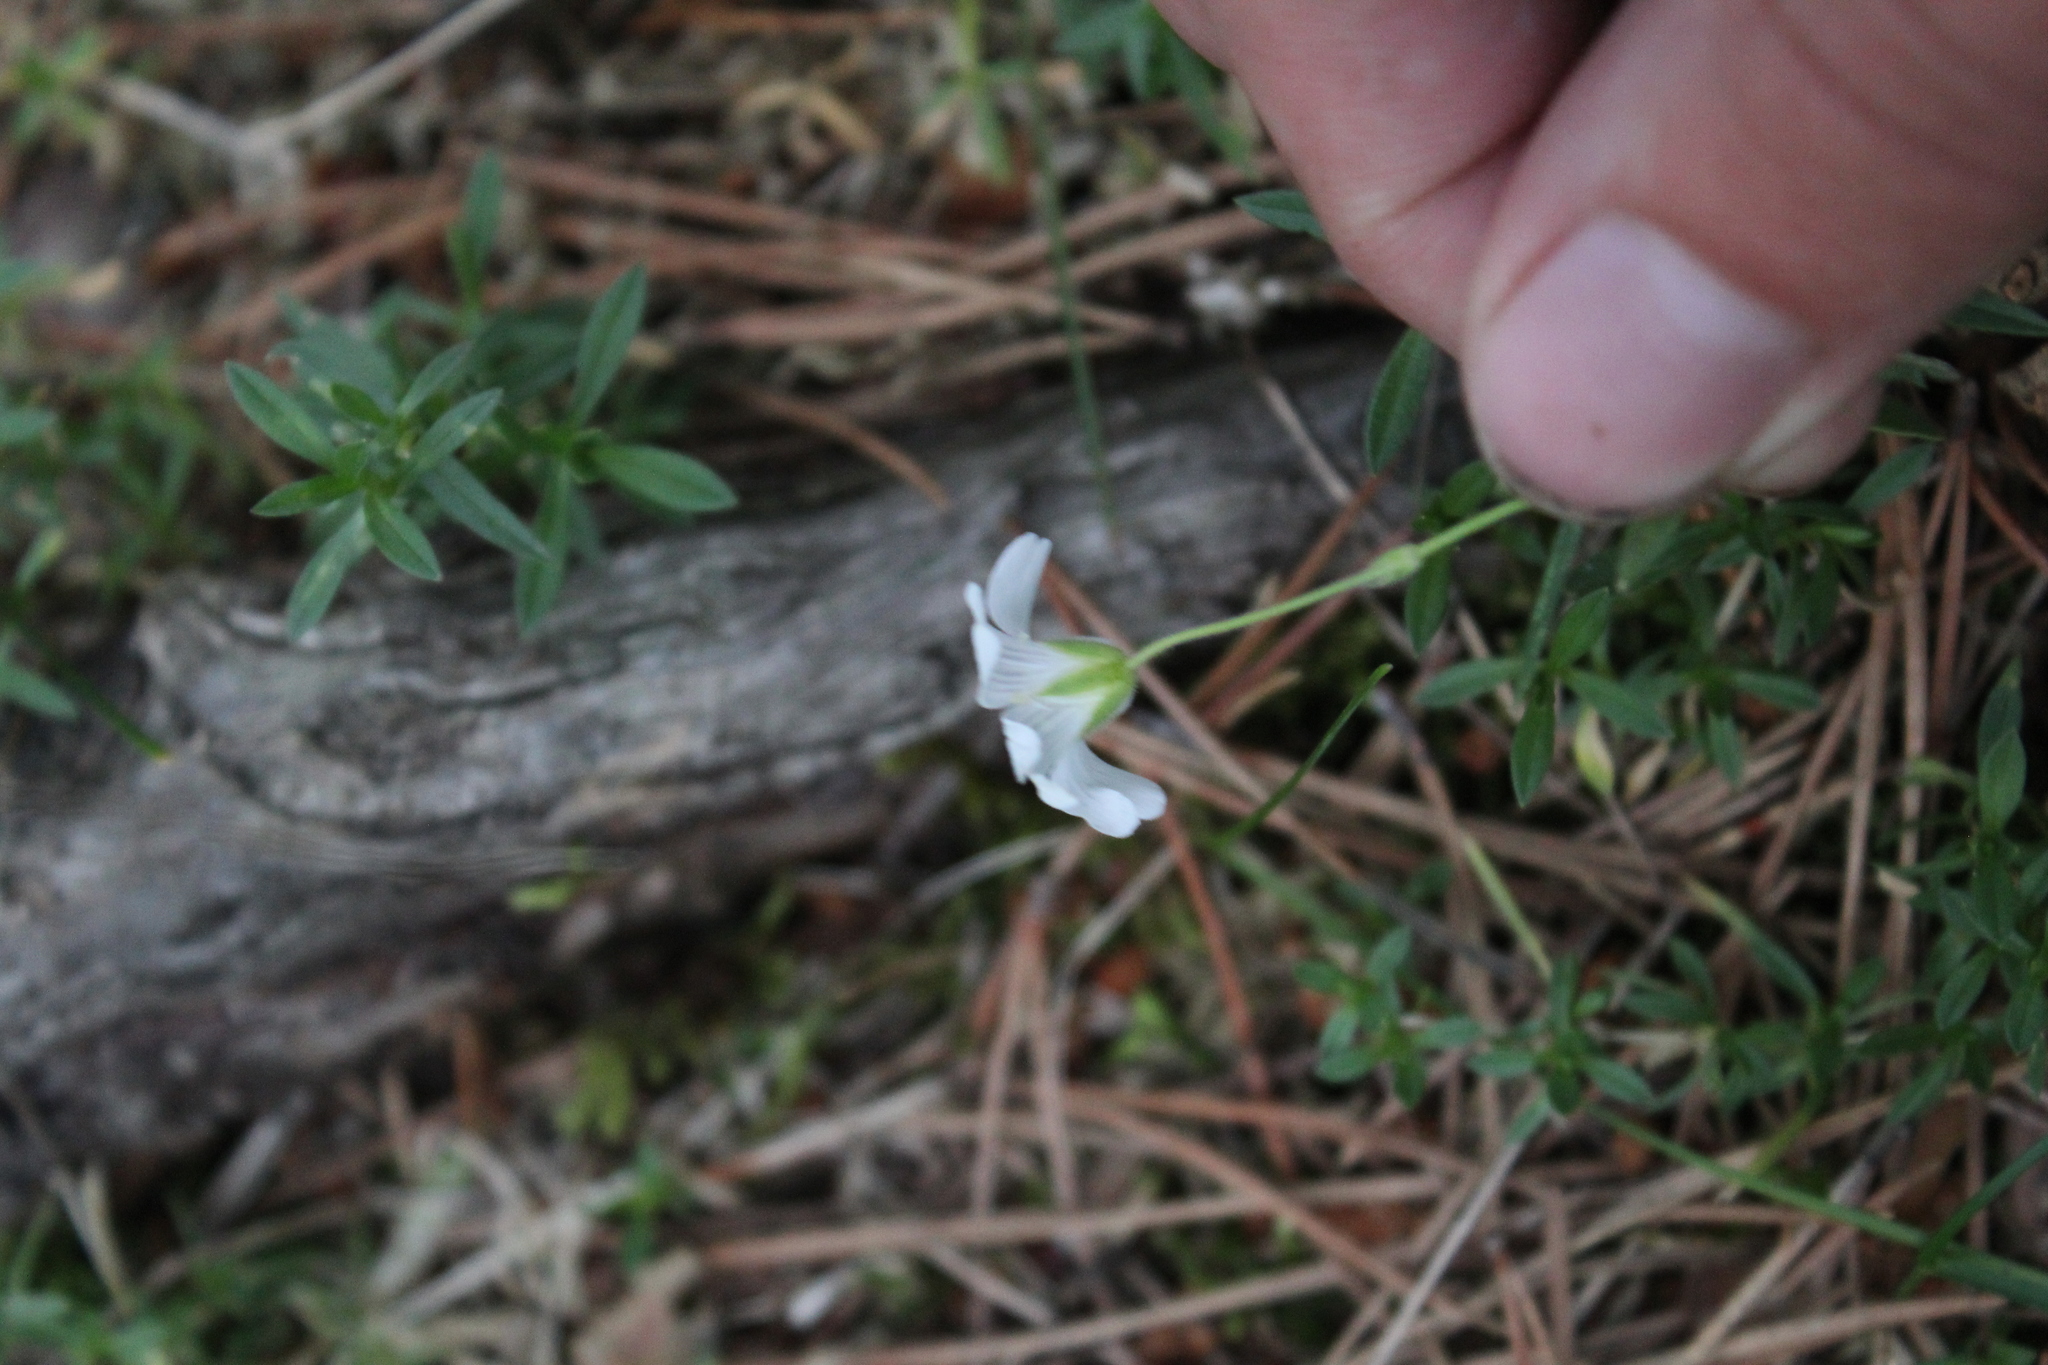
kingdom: Plantae
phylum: Tracheophyta
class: Magnoliopsida
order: Caryophyllales
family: Caryophyllaceae
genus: Cerastium
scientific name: Cerastium arvense
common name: Field mouse-ear
